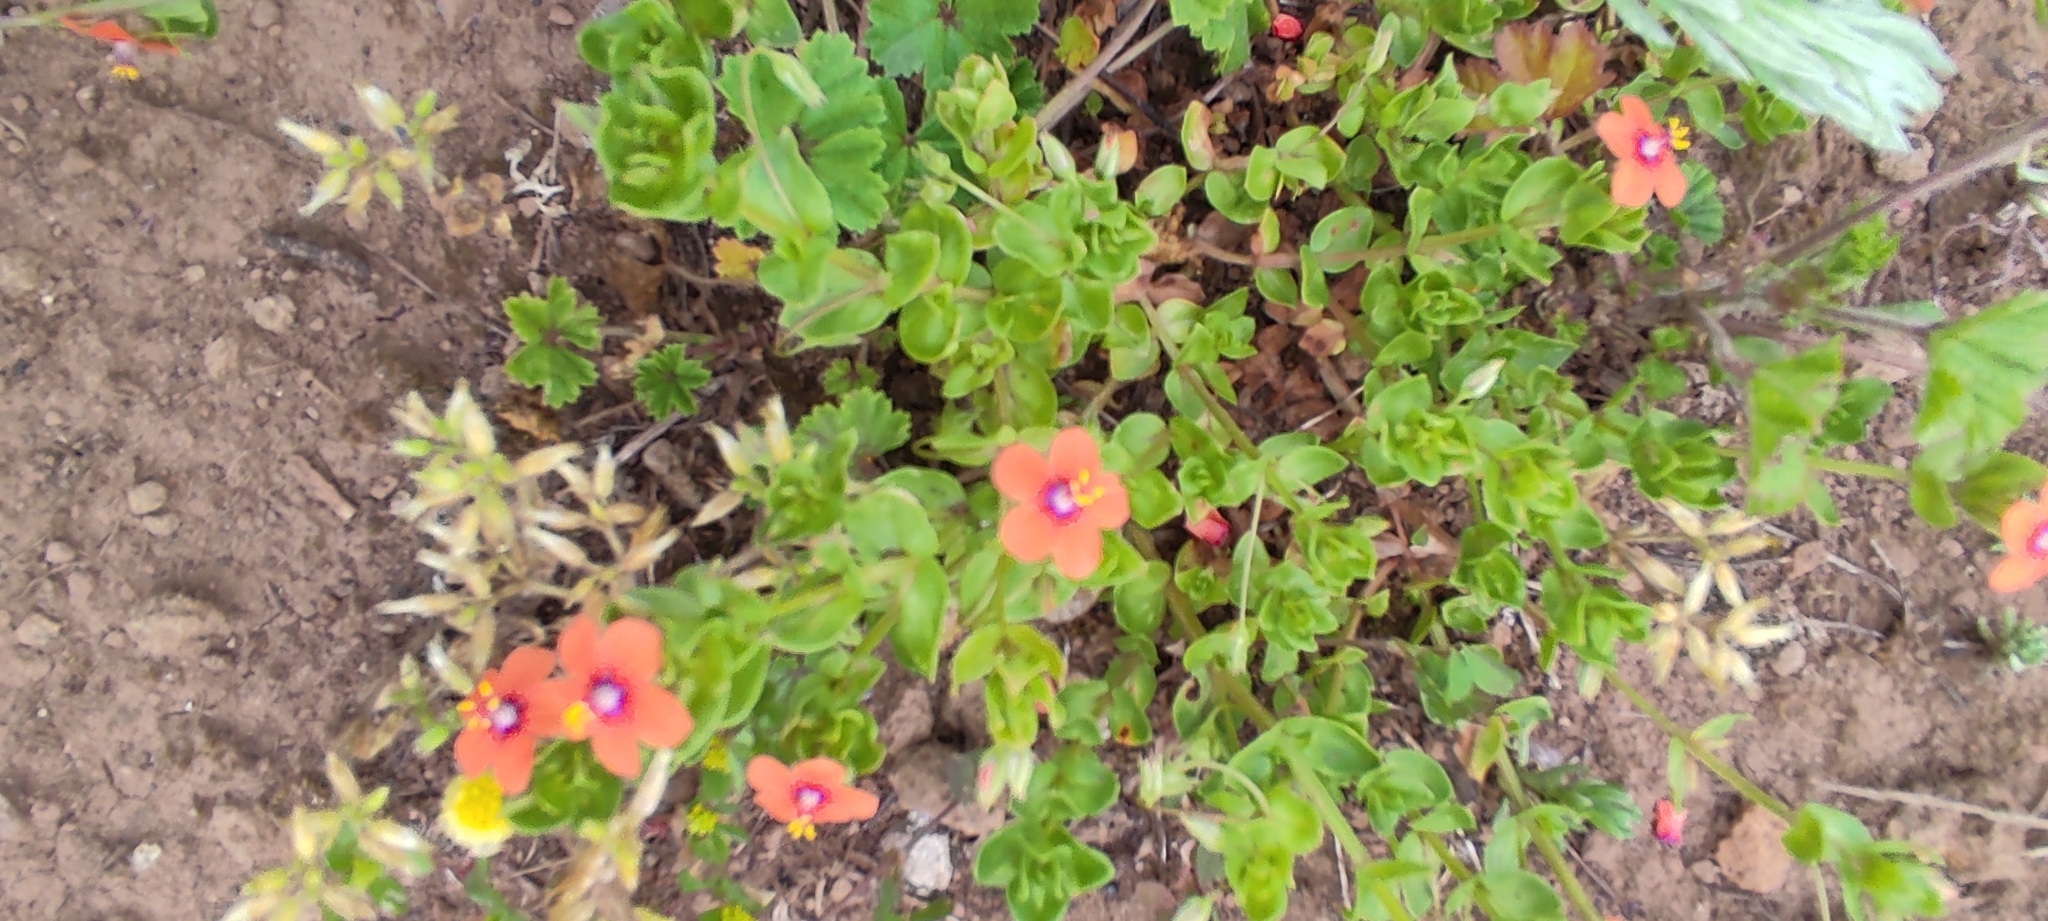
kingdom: Plantae
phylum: Tracheophyta
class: Magnoliopsida
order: Ericales
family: Primulaceae
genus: Lysimachia
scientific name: Lysimachia arvensis
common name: Scarlet pimpernel
